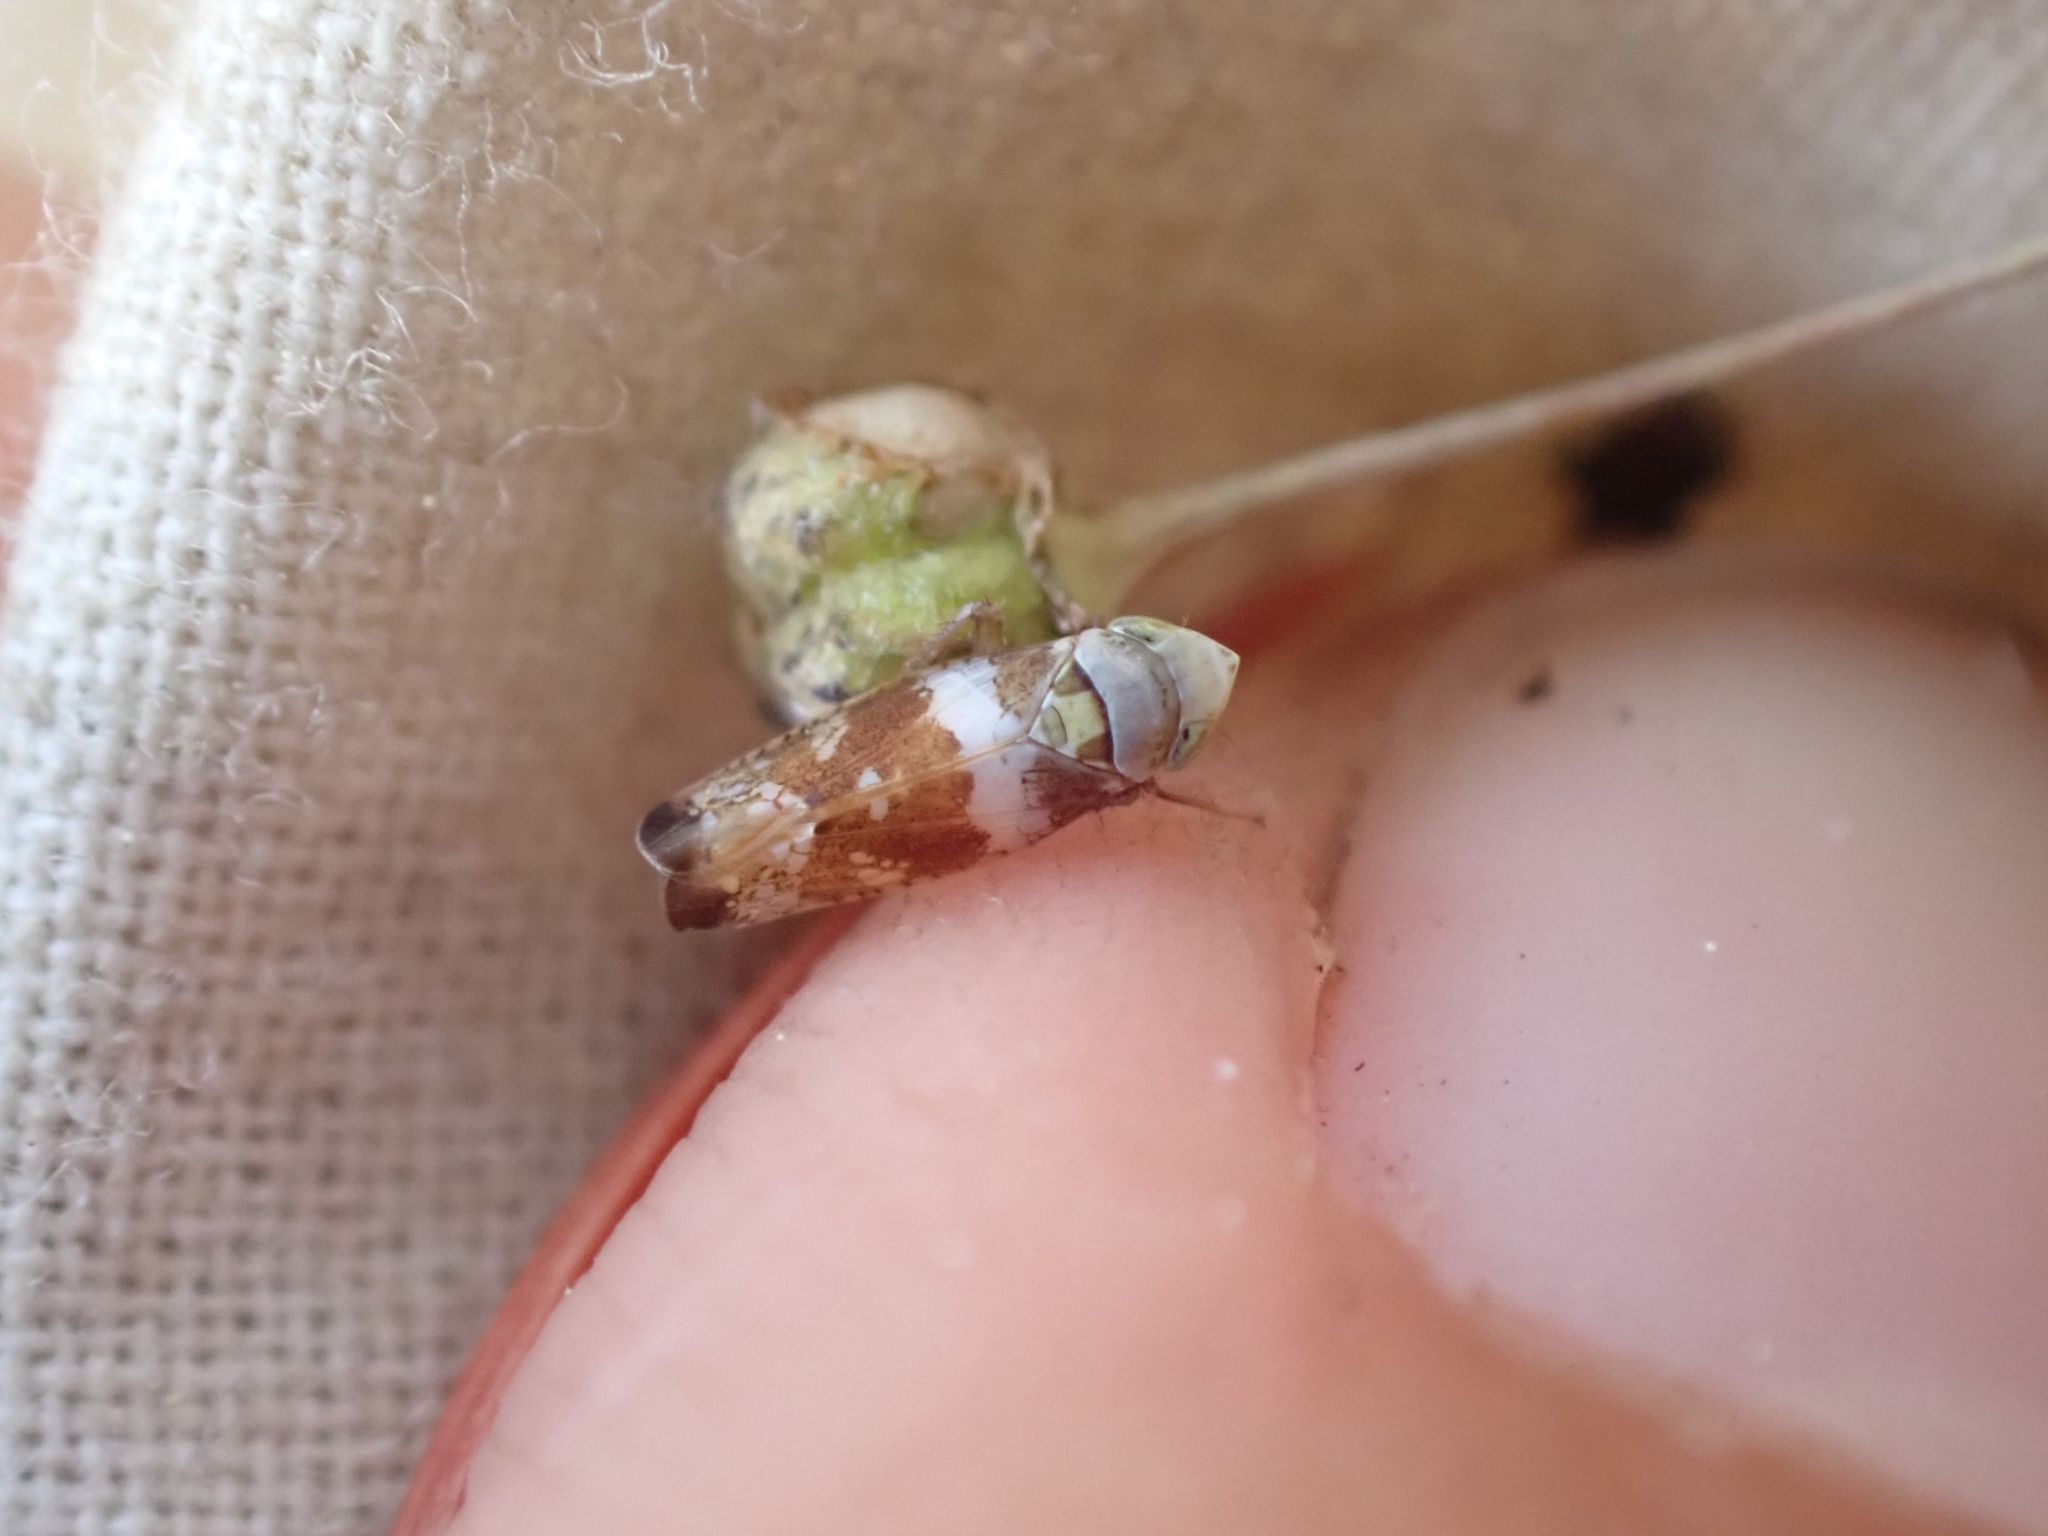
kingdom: Animalia
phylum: Arthropoda
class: Insecta
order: Hemiptera
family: Cicadellidae
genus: Twiningia
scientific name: Twiningia fasciata
